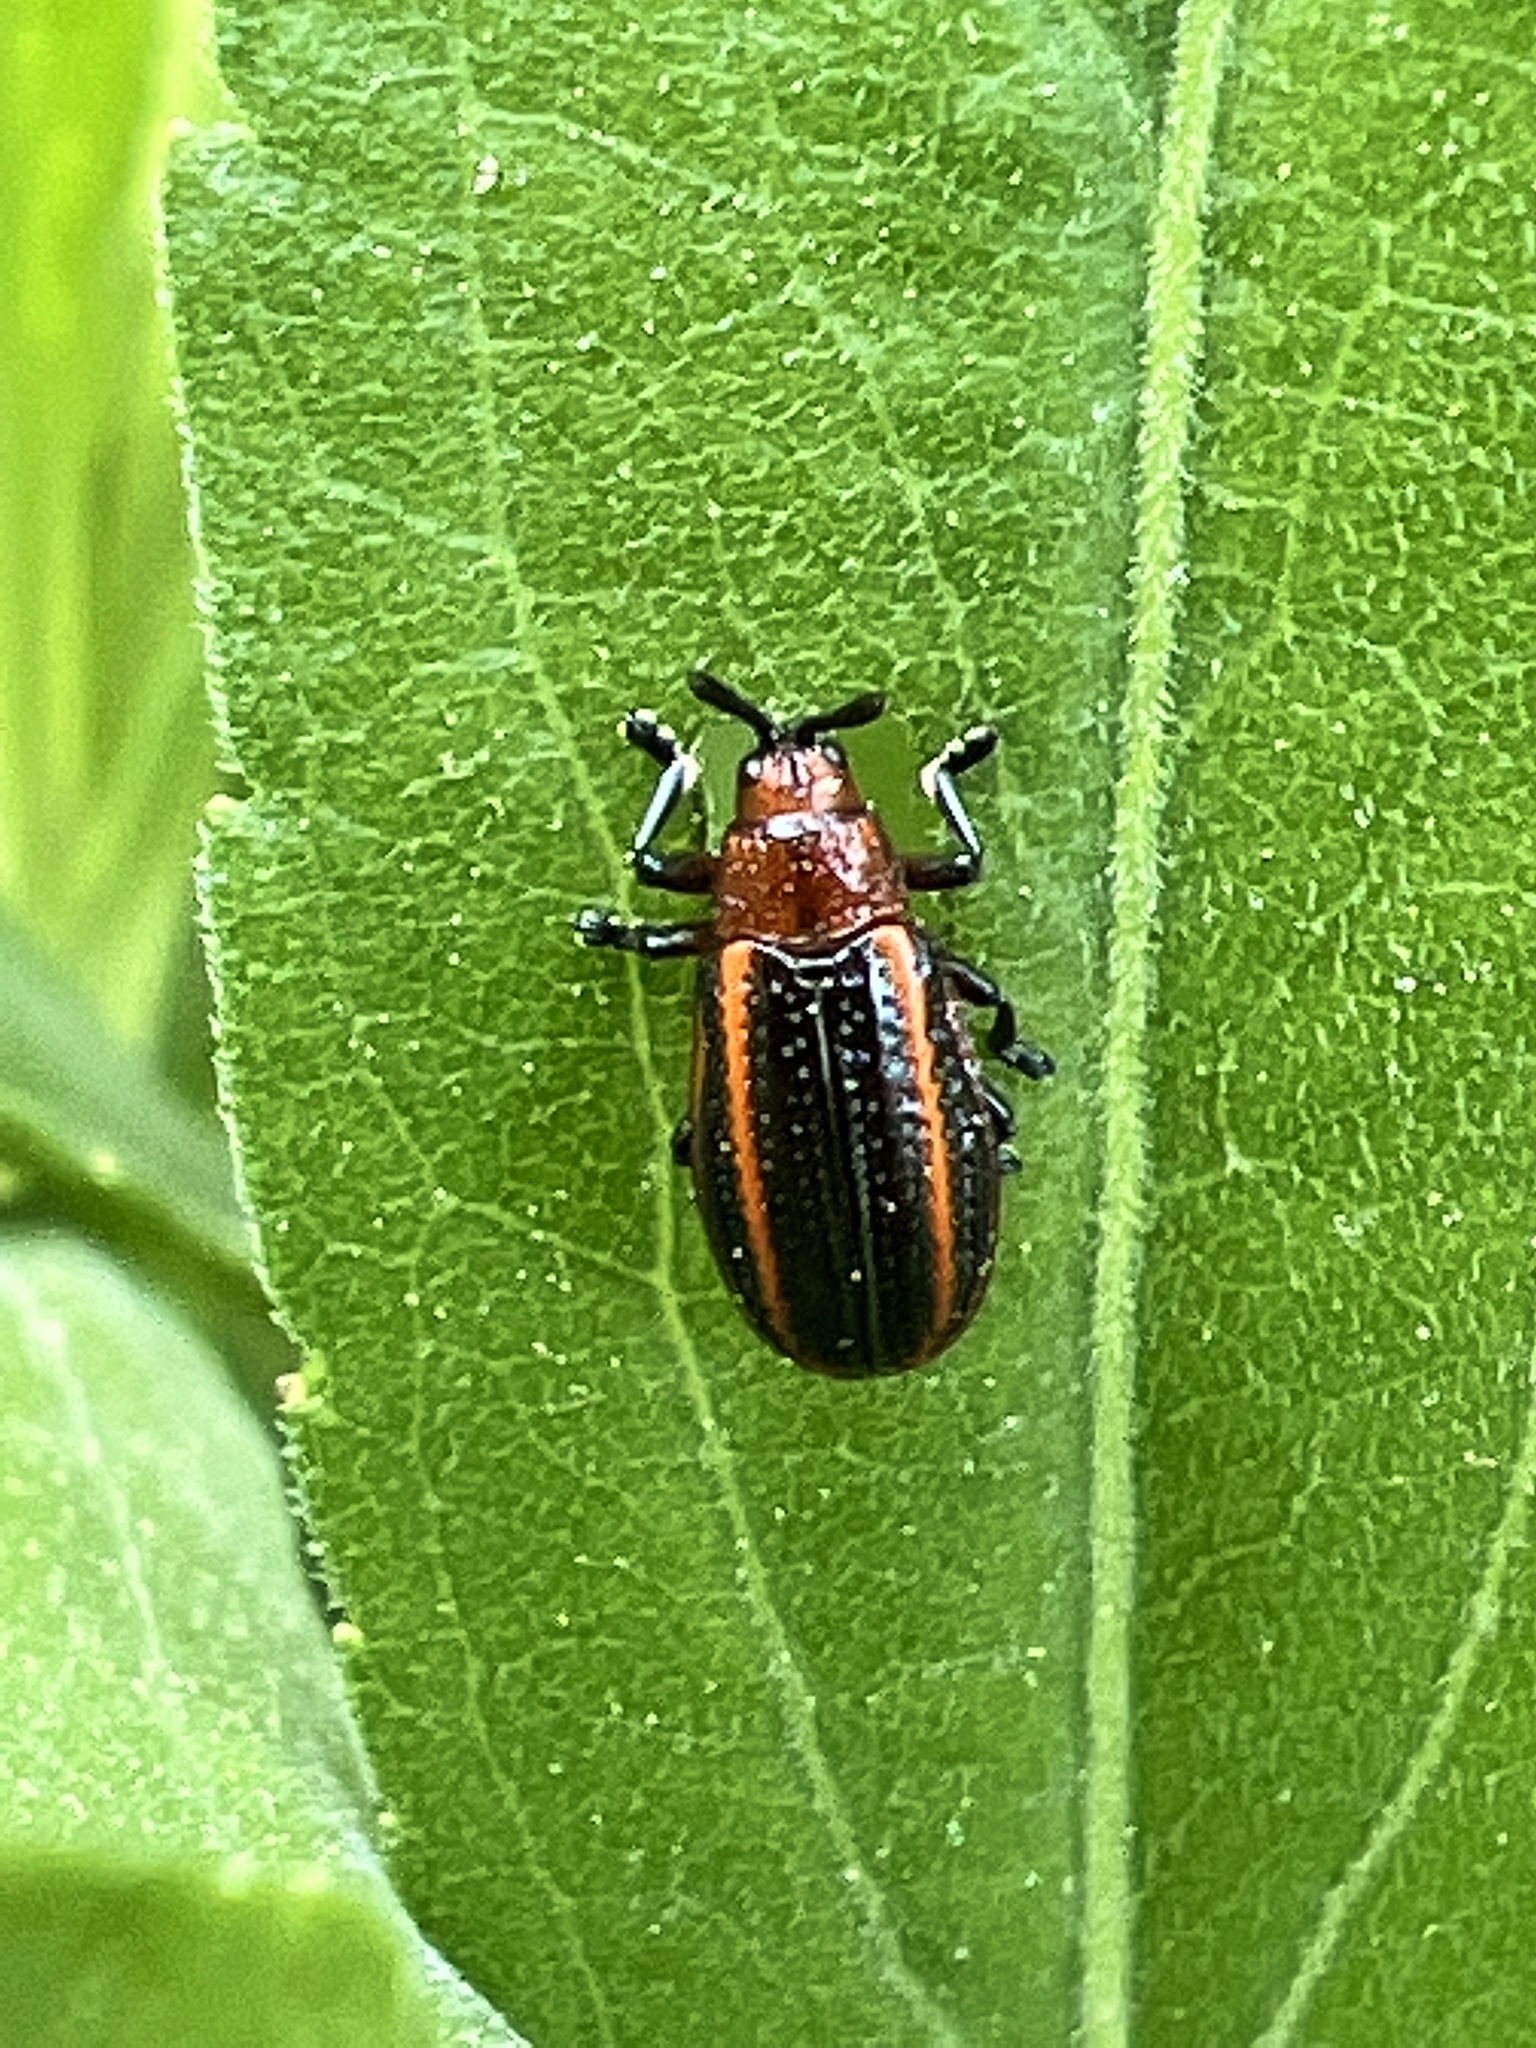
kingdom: Animalia
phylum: Arthropoda
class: Insecta
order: Coleoptera
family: Chrysomelidae
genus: Microrhopala
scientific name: Microrhopala vittata
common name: Goldenrod leaf miner beetle
